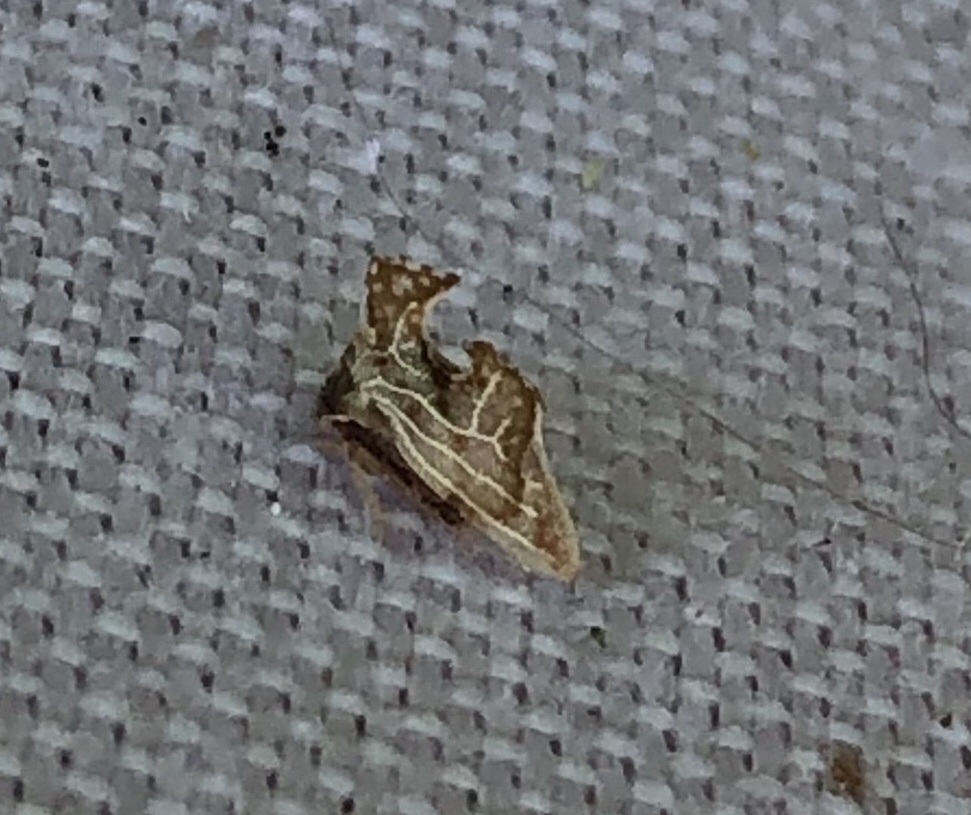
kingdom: Animalia
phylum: Arthropoda
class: Insecta
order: Hemiptera
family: Membracidae
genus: Entylia
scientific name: Entylia carinata
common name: Keeled treehopper
